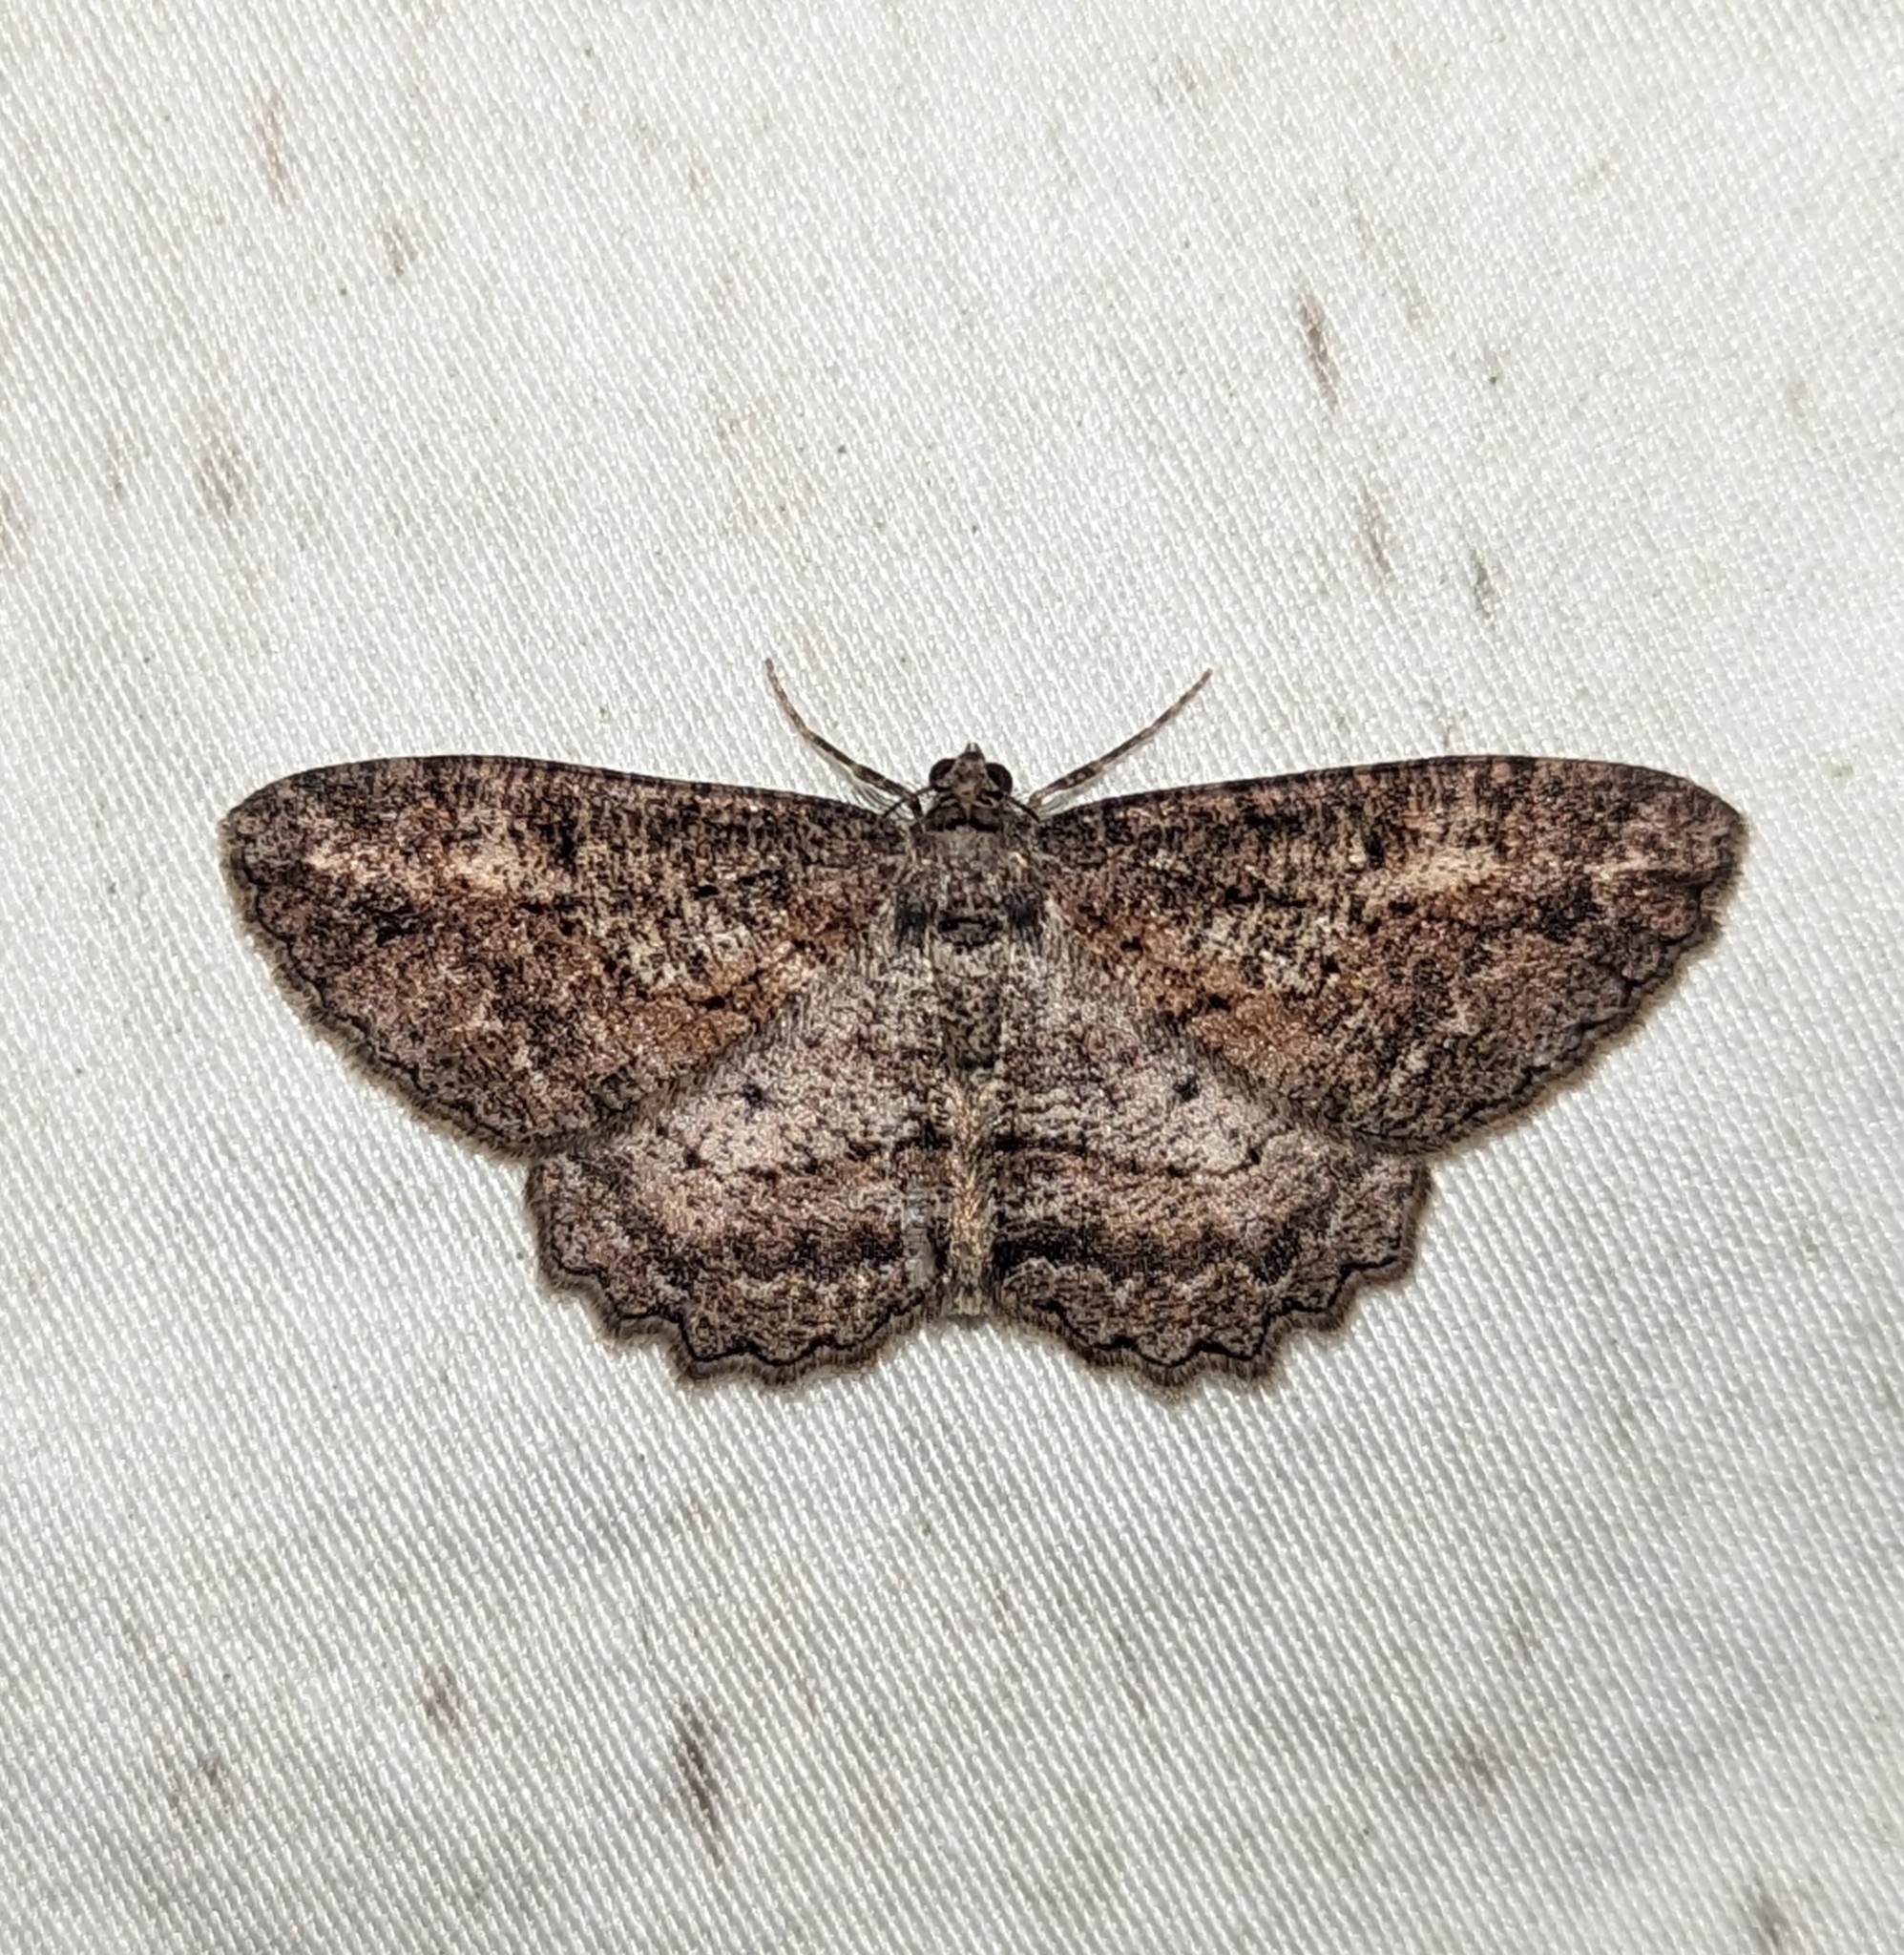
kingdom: Animalia
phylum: Arthropoda
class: Insecta
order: Lepidoptera
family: Geometridae
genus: Neoalcis
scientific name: Neoalcis californiaria
